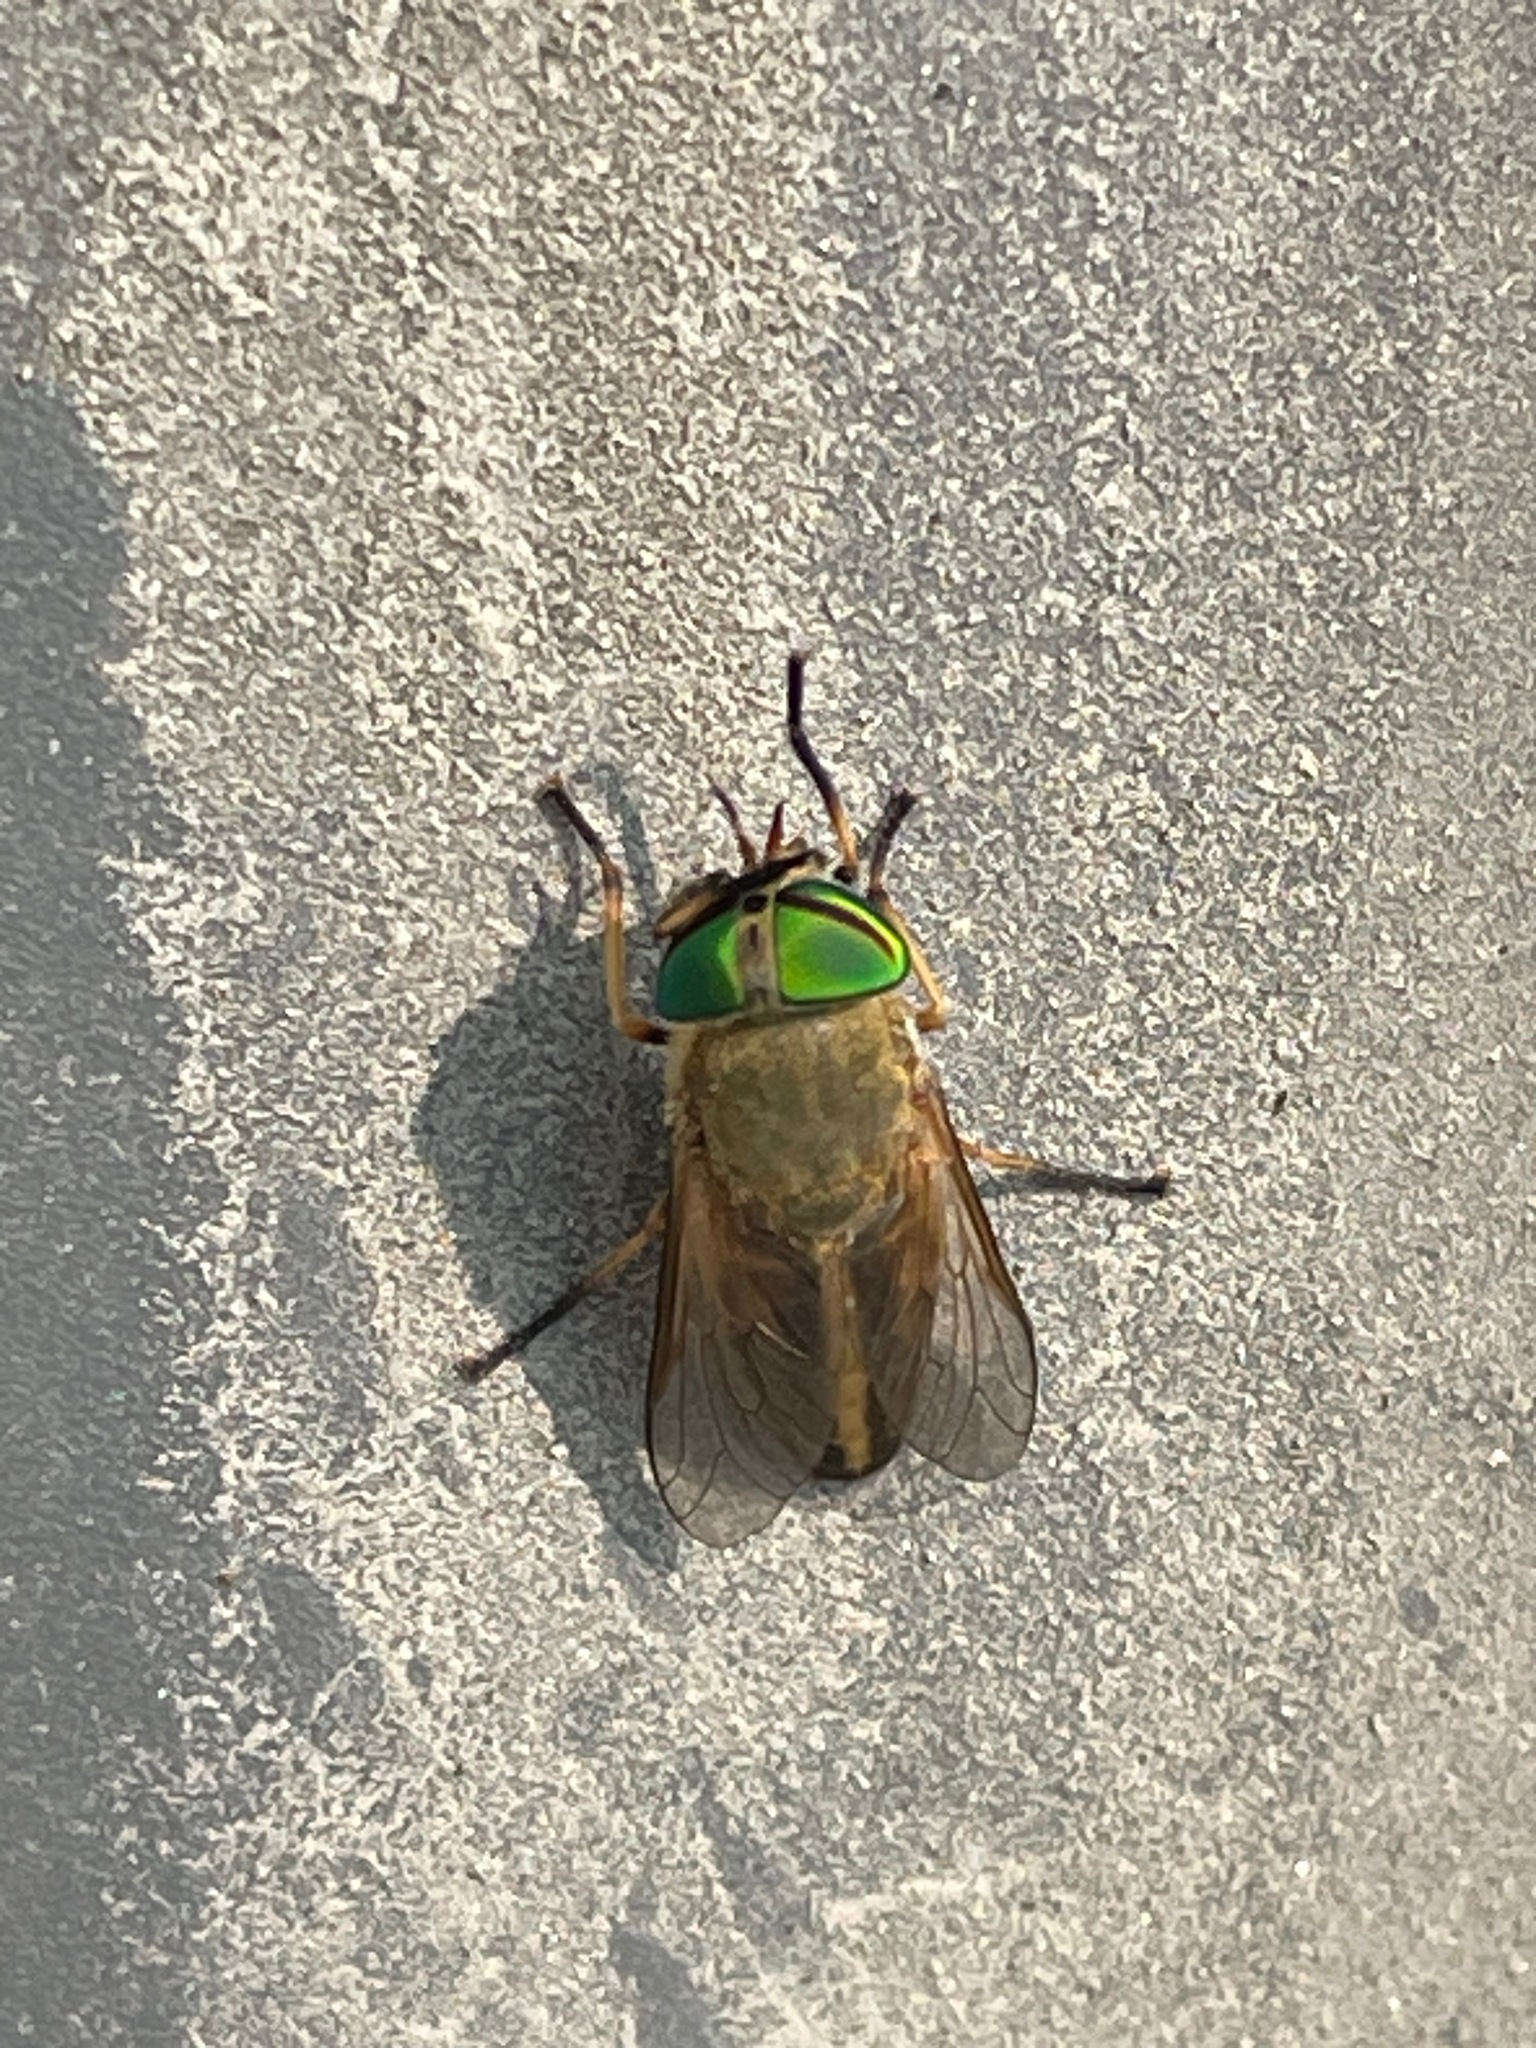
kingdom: Animalia
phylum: Arthropoda
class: Insecta
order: Diptera
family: Tabanidae
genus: Tabanus
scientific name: Tabanus
